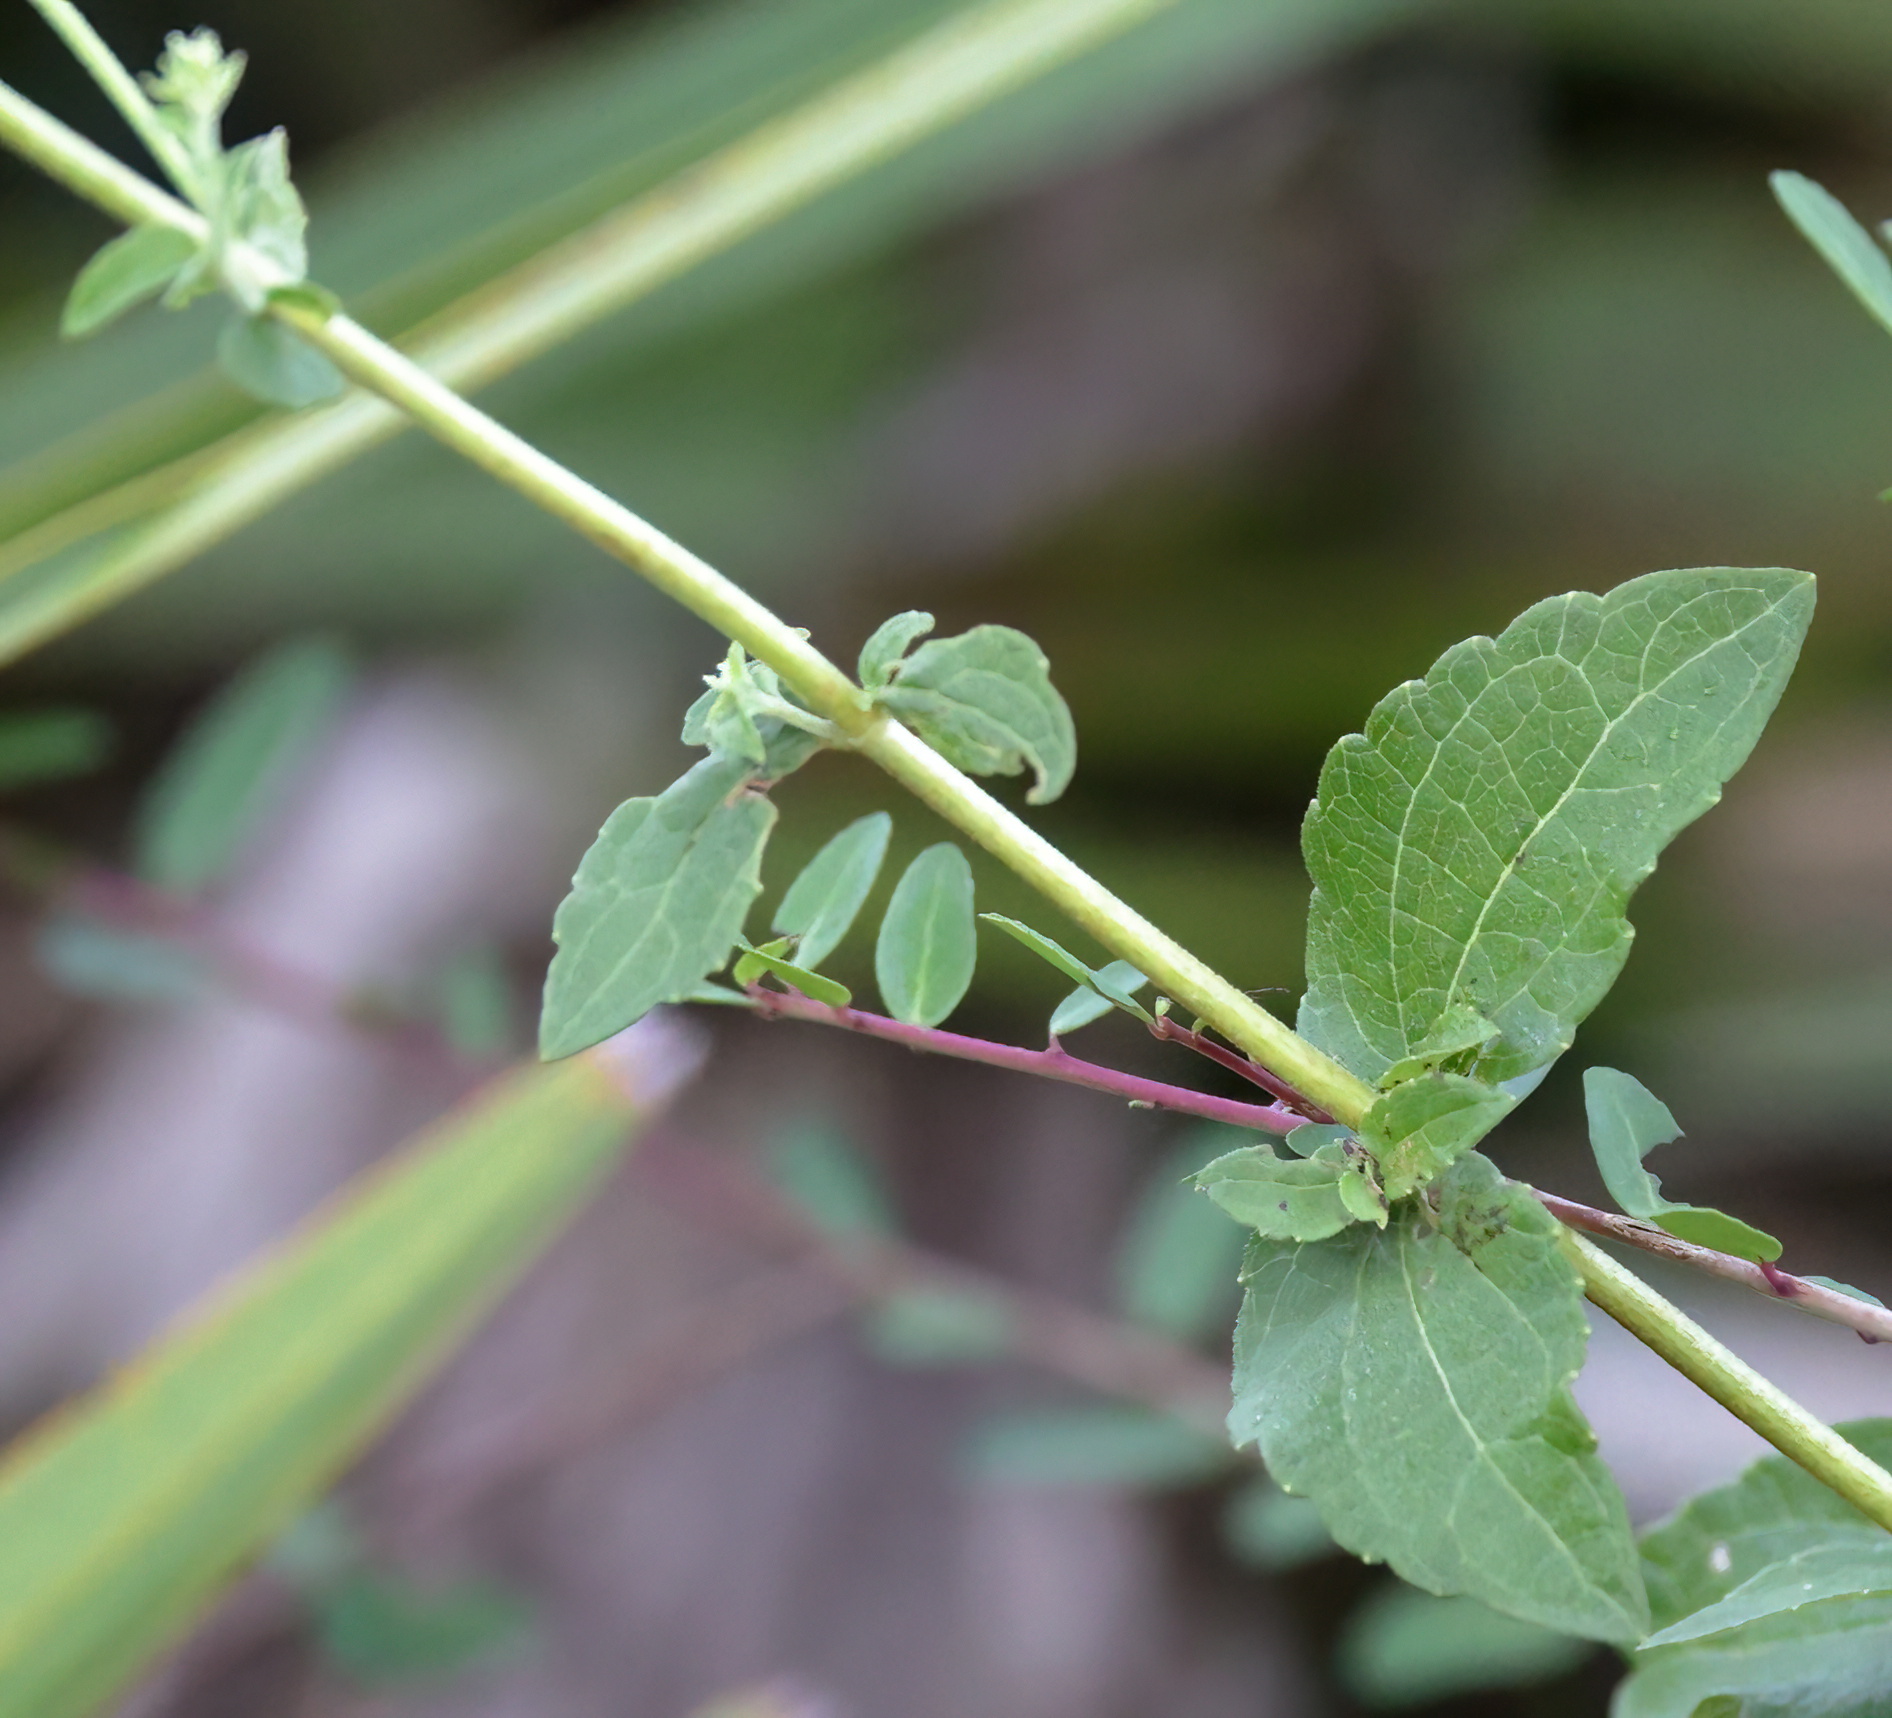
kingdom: Plantae
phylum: Tracheophyta
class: Magnoliopsida
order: Asterales
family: Asteraceae
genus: Ageratina
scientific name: Ageratina aromatica
